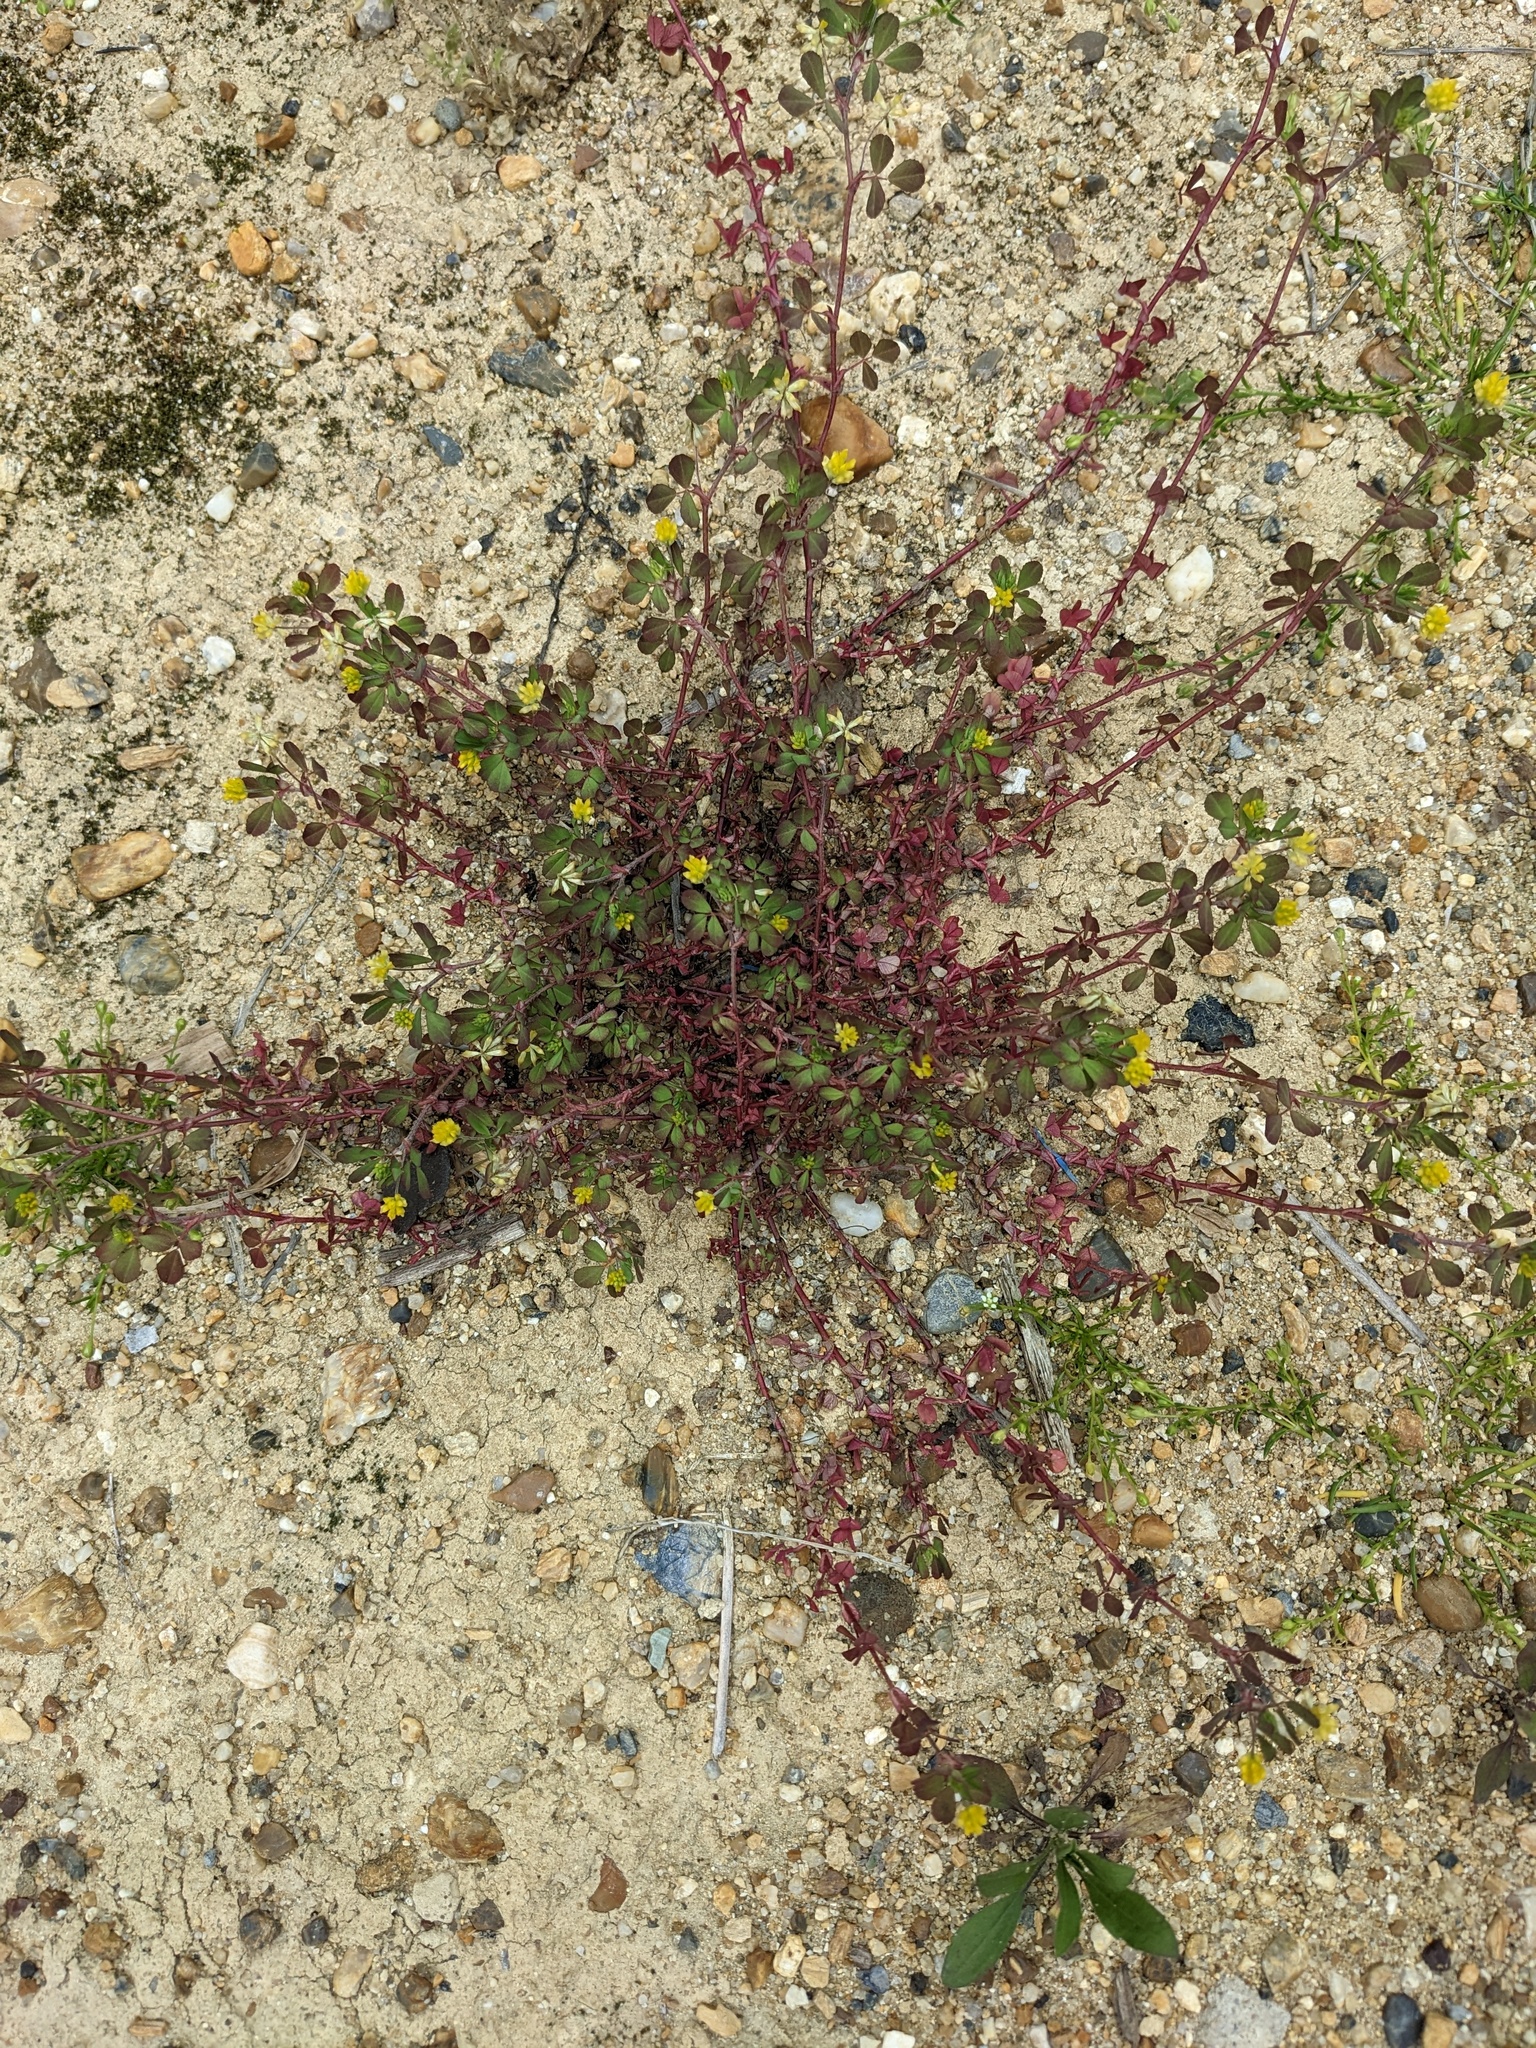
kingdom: Plantae
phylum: Tracheophyta
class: Magnoliopsida
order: Fabales
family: Fabaceae
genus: Trifolium
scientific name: Trifolium dubium
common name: Suckling clover
